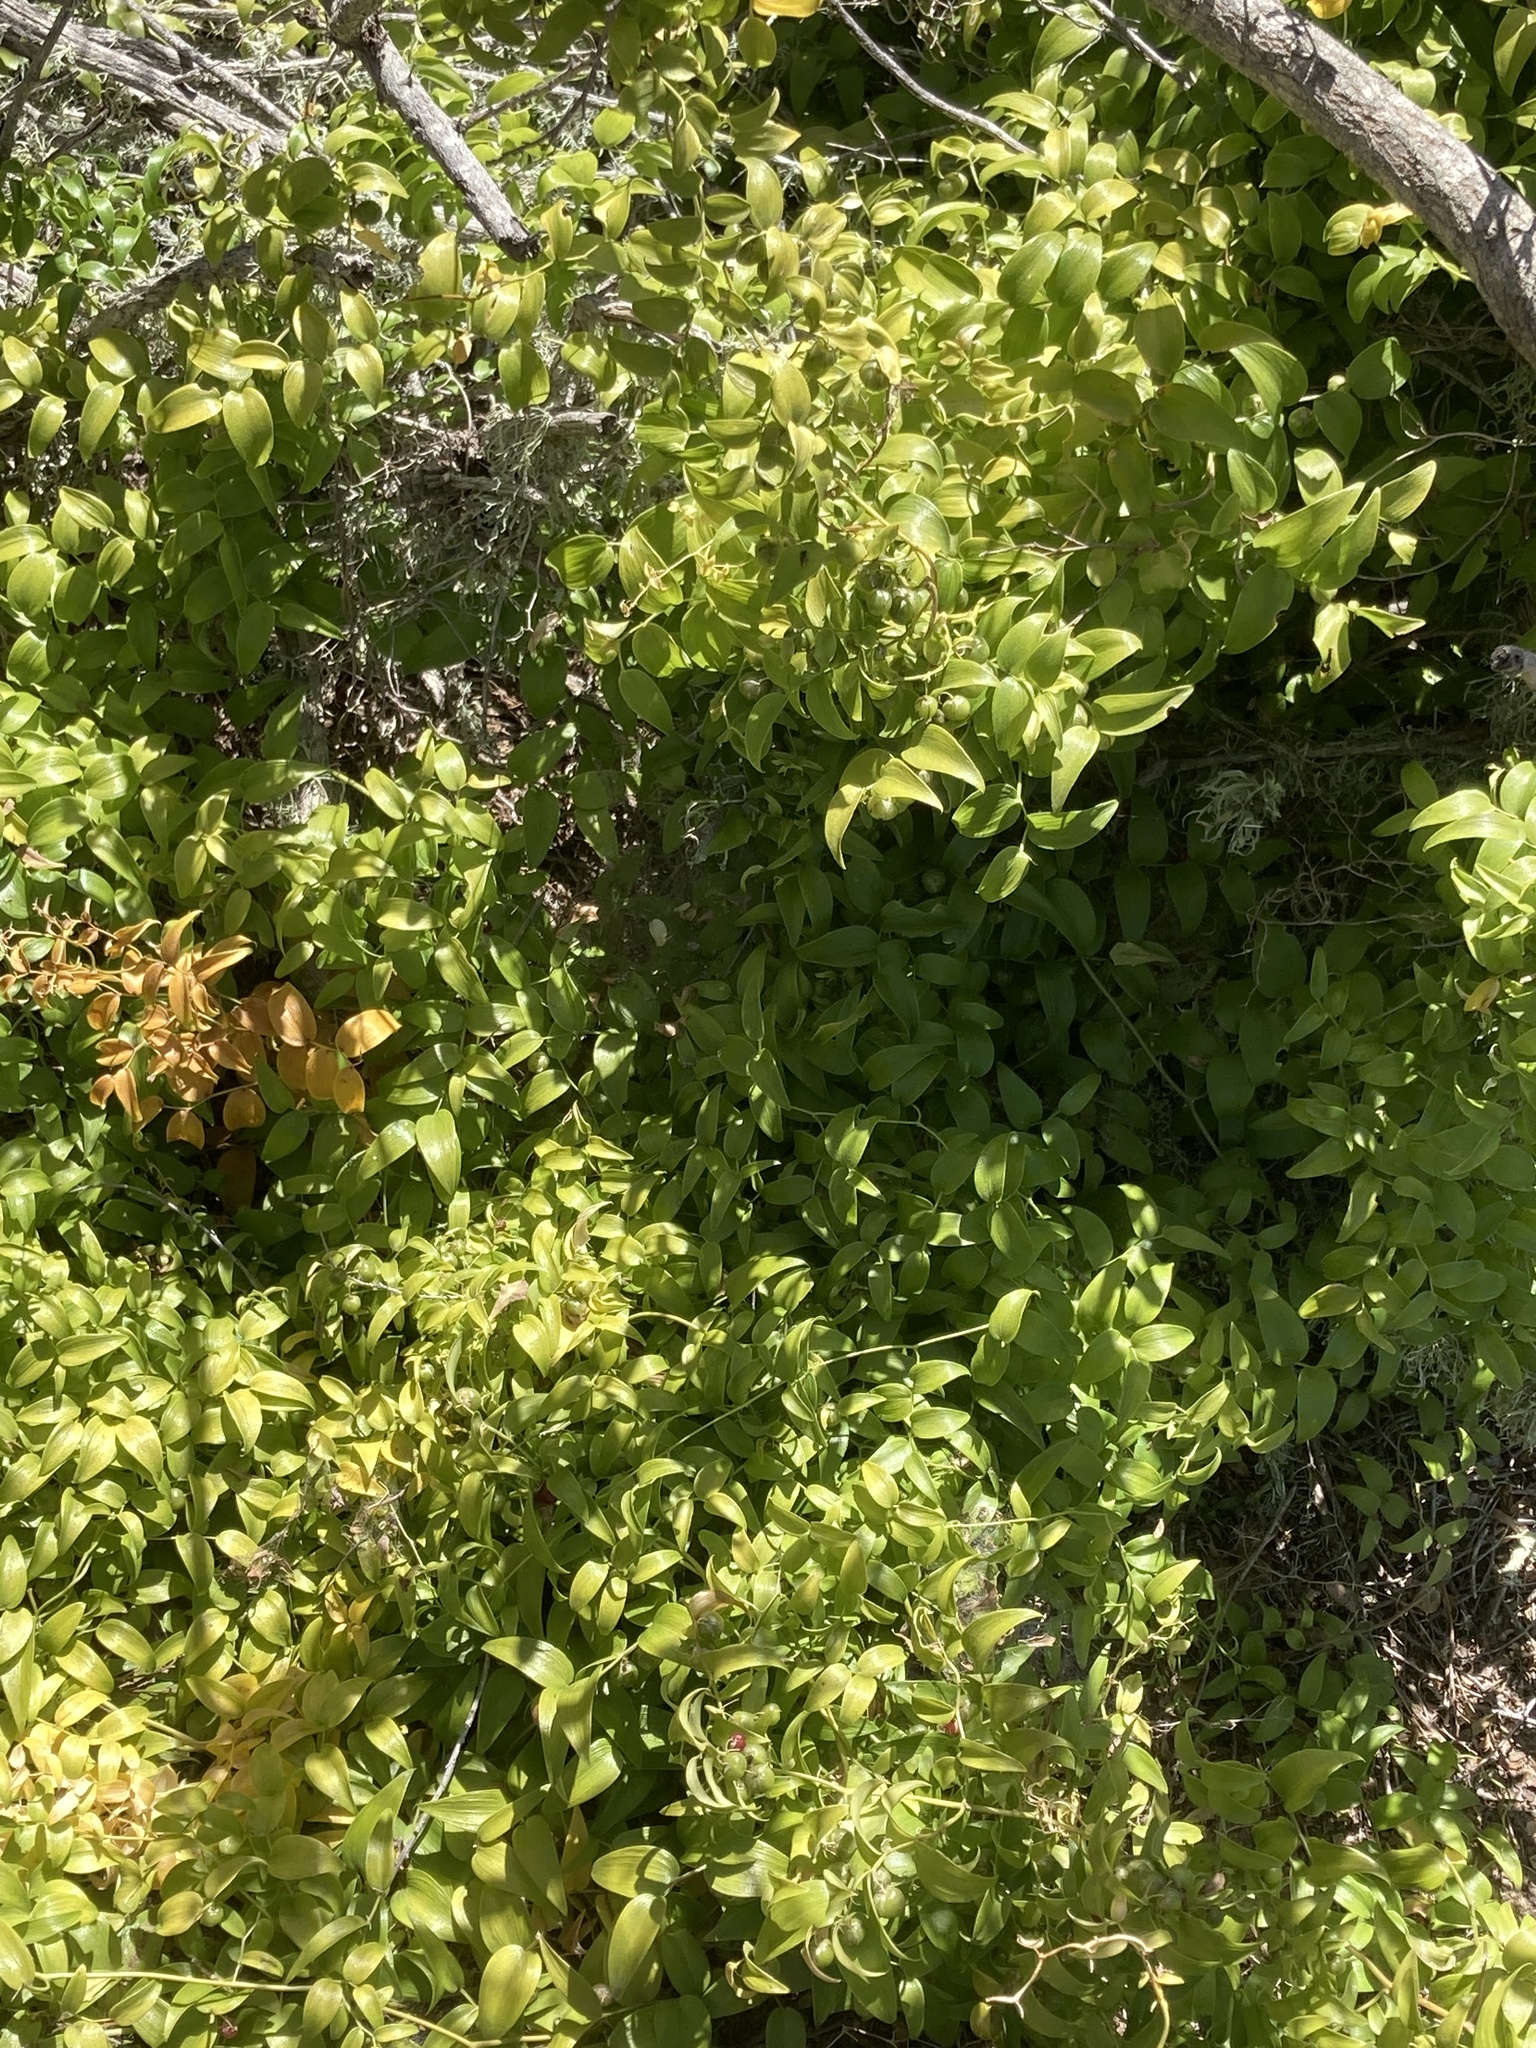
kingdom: Plantae
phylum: Tracheophyta
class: Liliopsida
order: Asparagales
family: Asparagaceae
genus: Asparagus
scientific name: Asparagus asparagoides
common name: African asparagus fern
